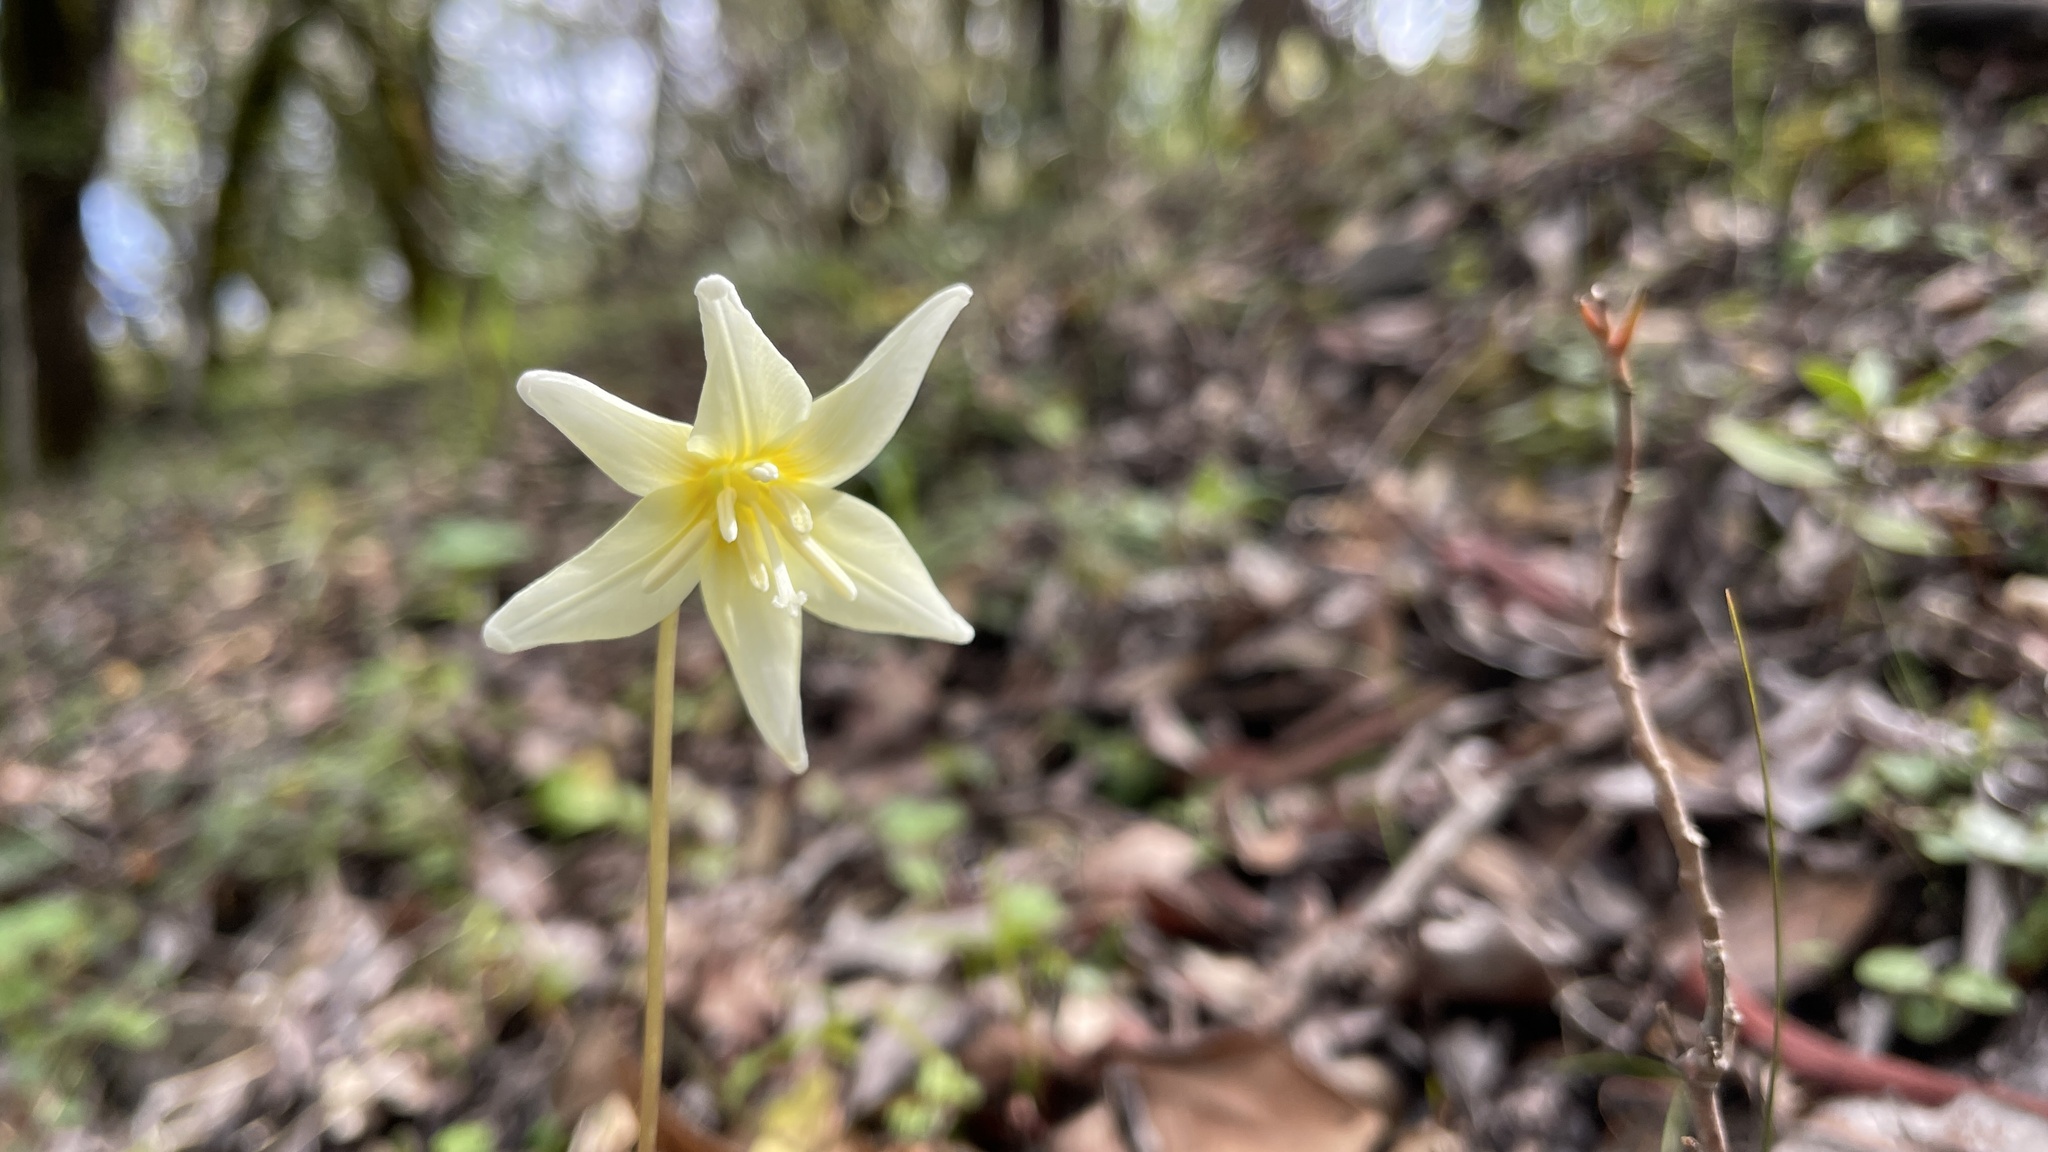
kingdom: Plantae
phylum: Tracheophyta
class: Liliopsida
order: Liliales
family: Liliaceae
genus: Erythronium
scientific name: Erythronium californicum
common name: Fawn-lily
